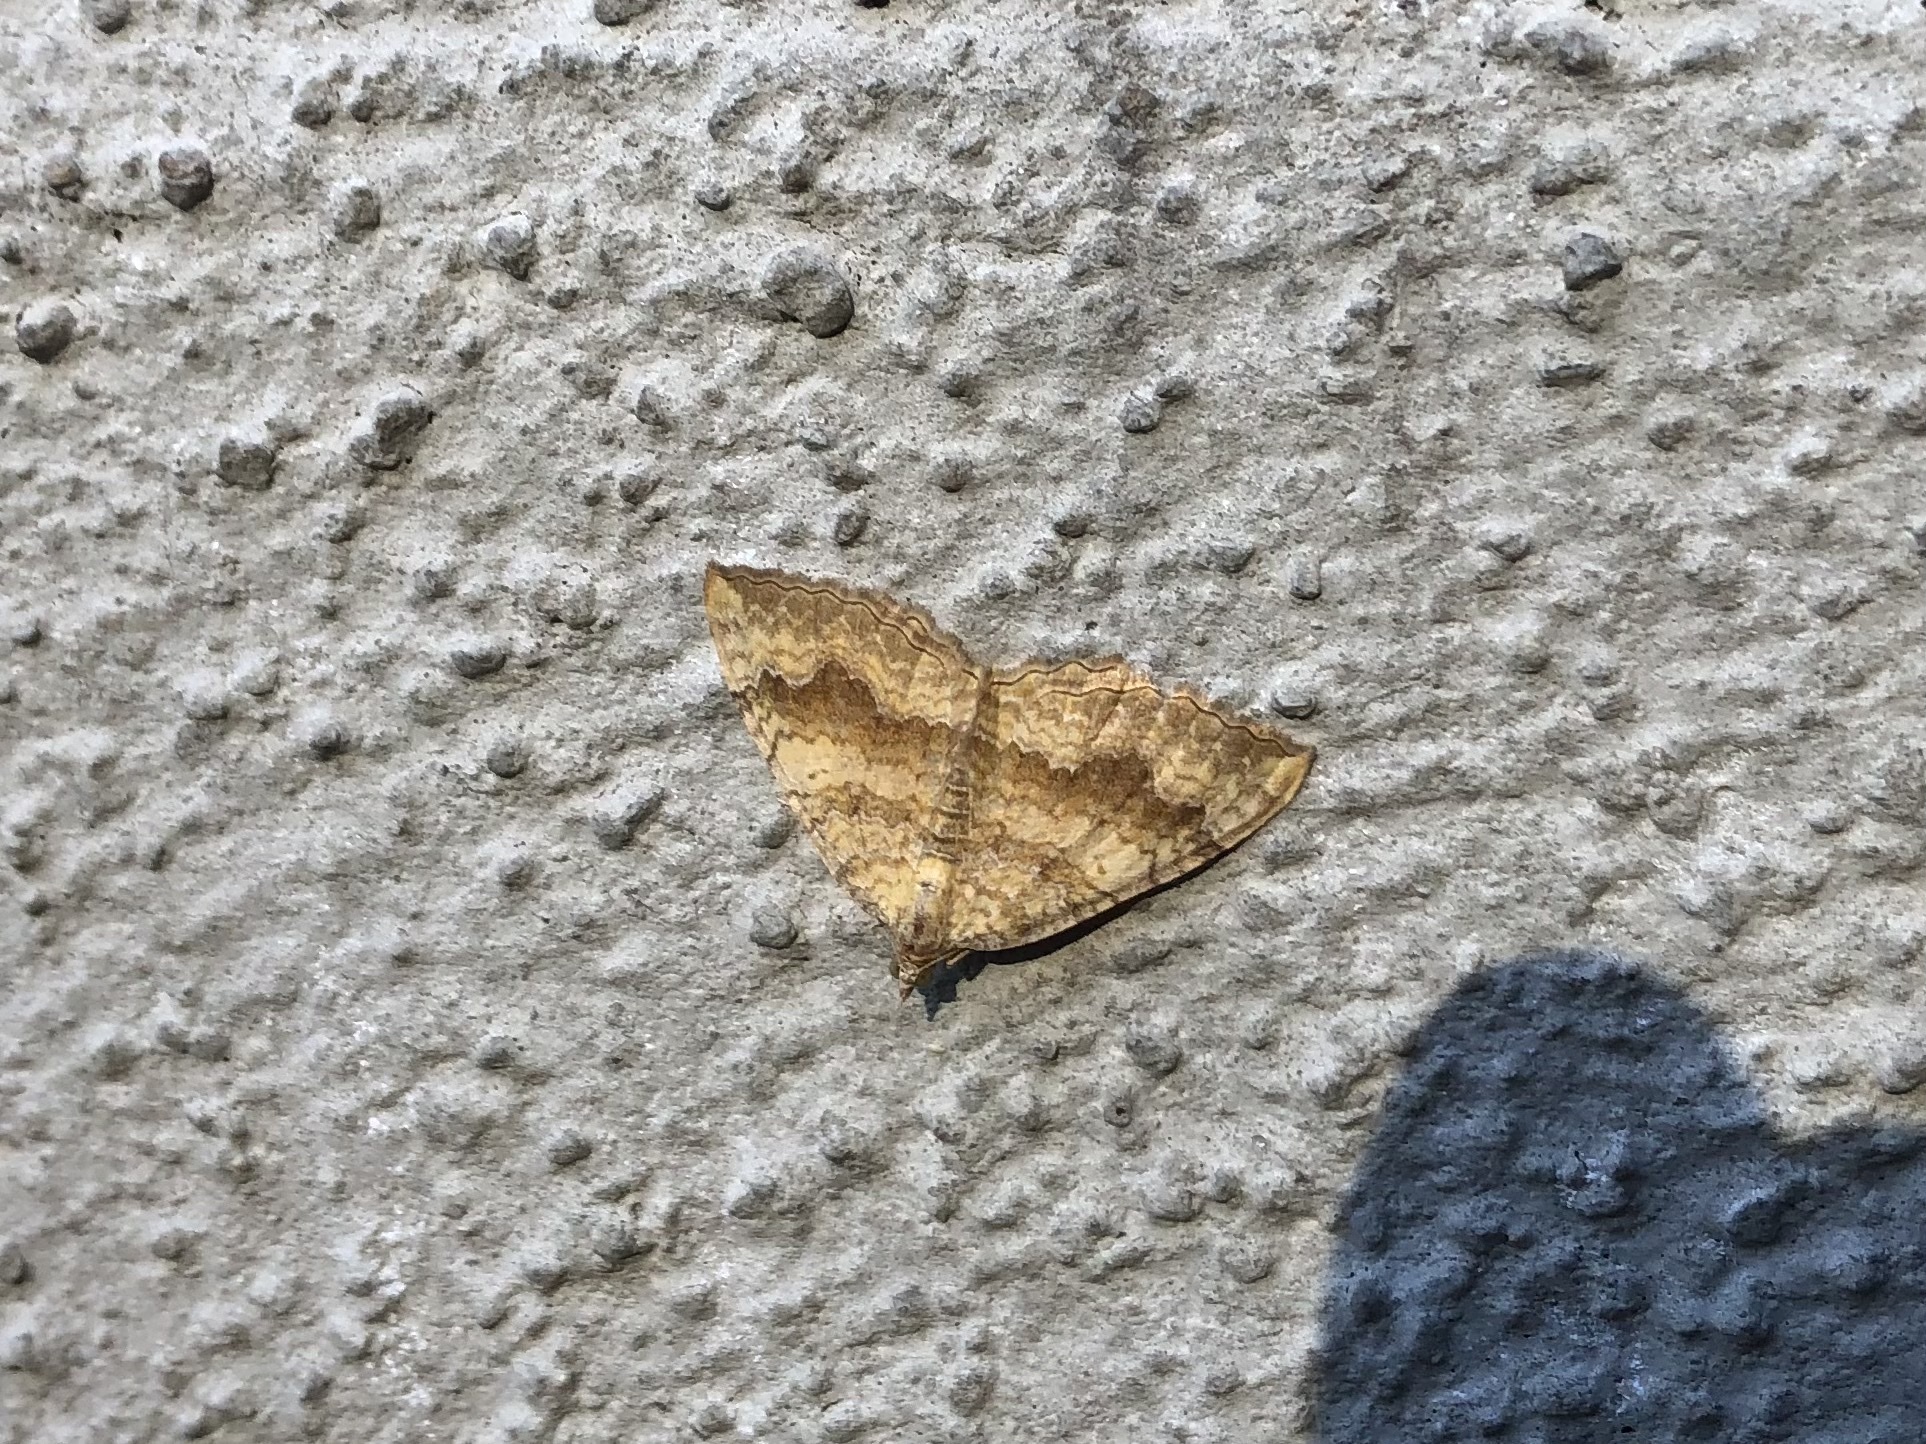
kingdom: Animalia
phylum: Arthropoda
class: Insecta
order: Lepidoptera
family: Geometridae
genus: Camptogramma
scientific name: Camptogramma bilineata
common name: Yellow shell
